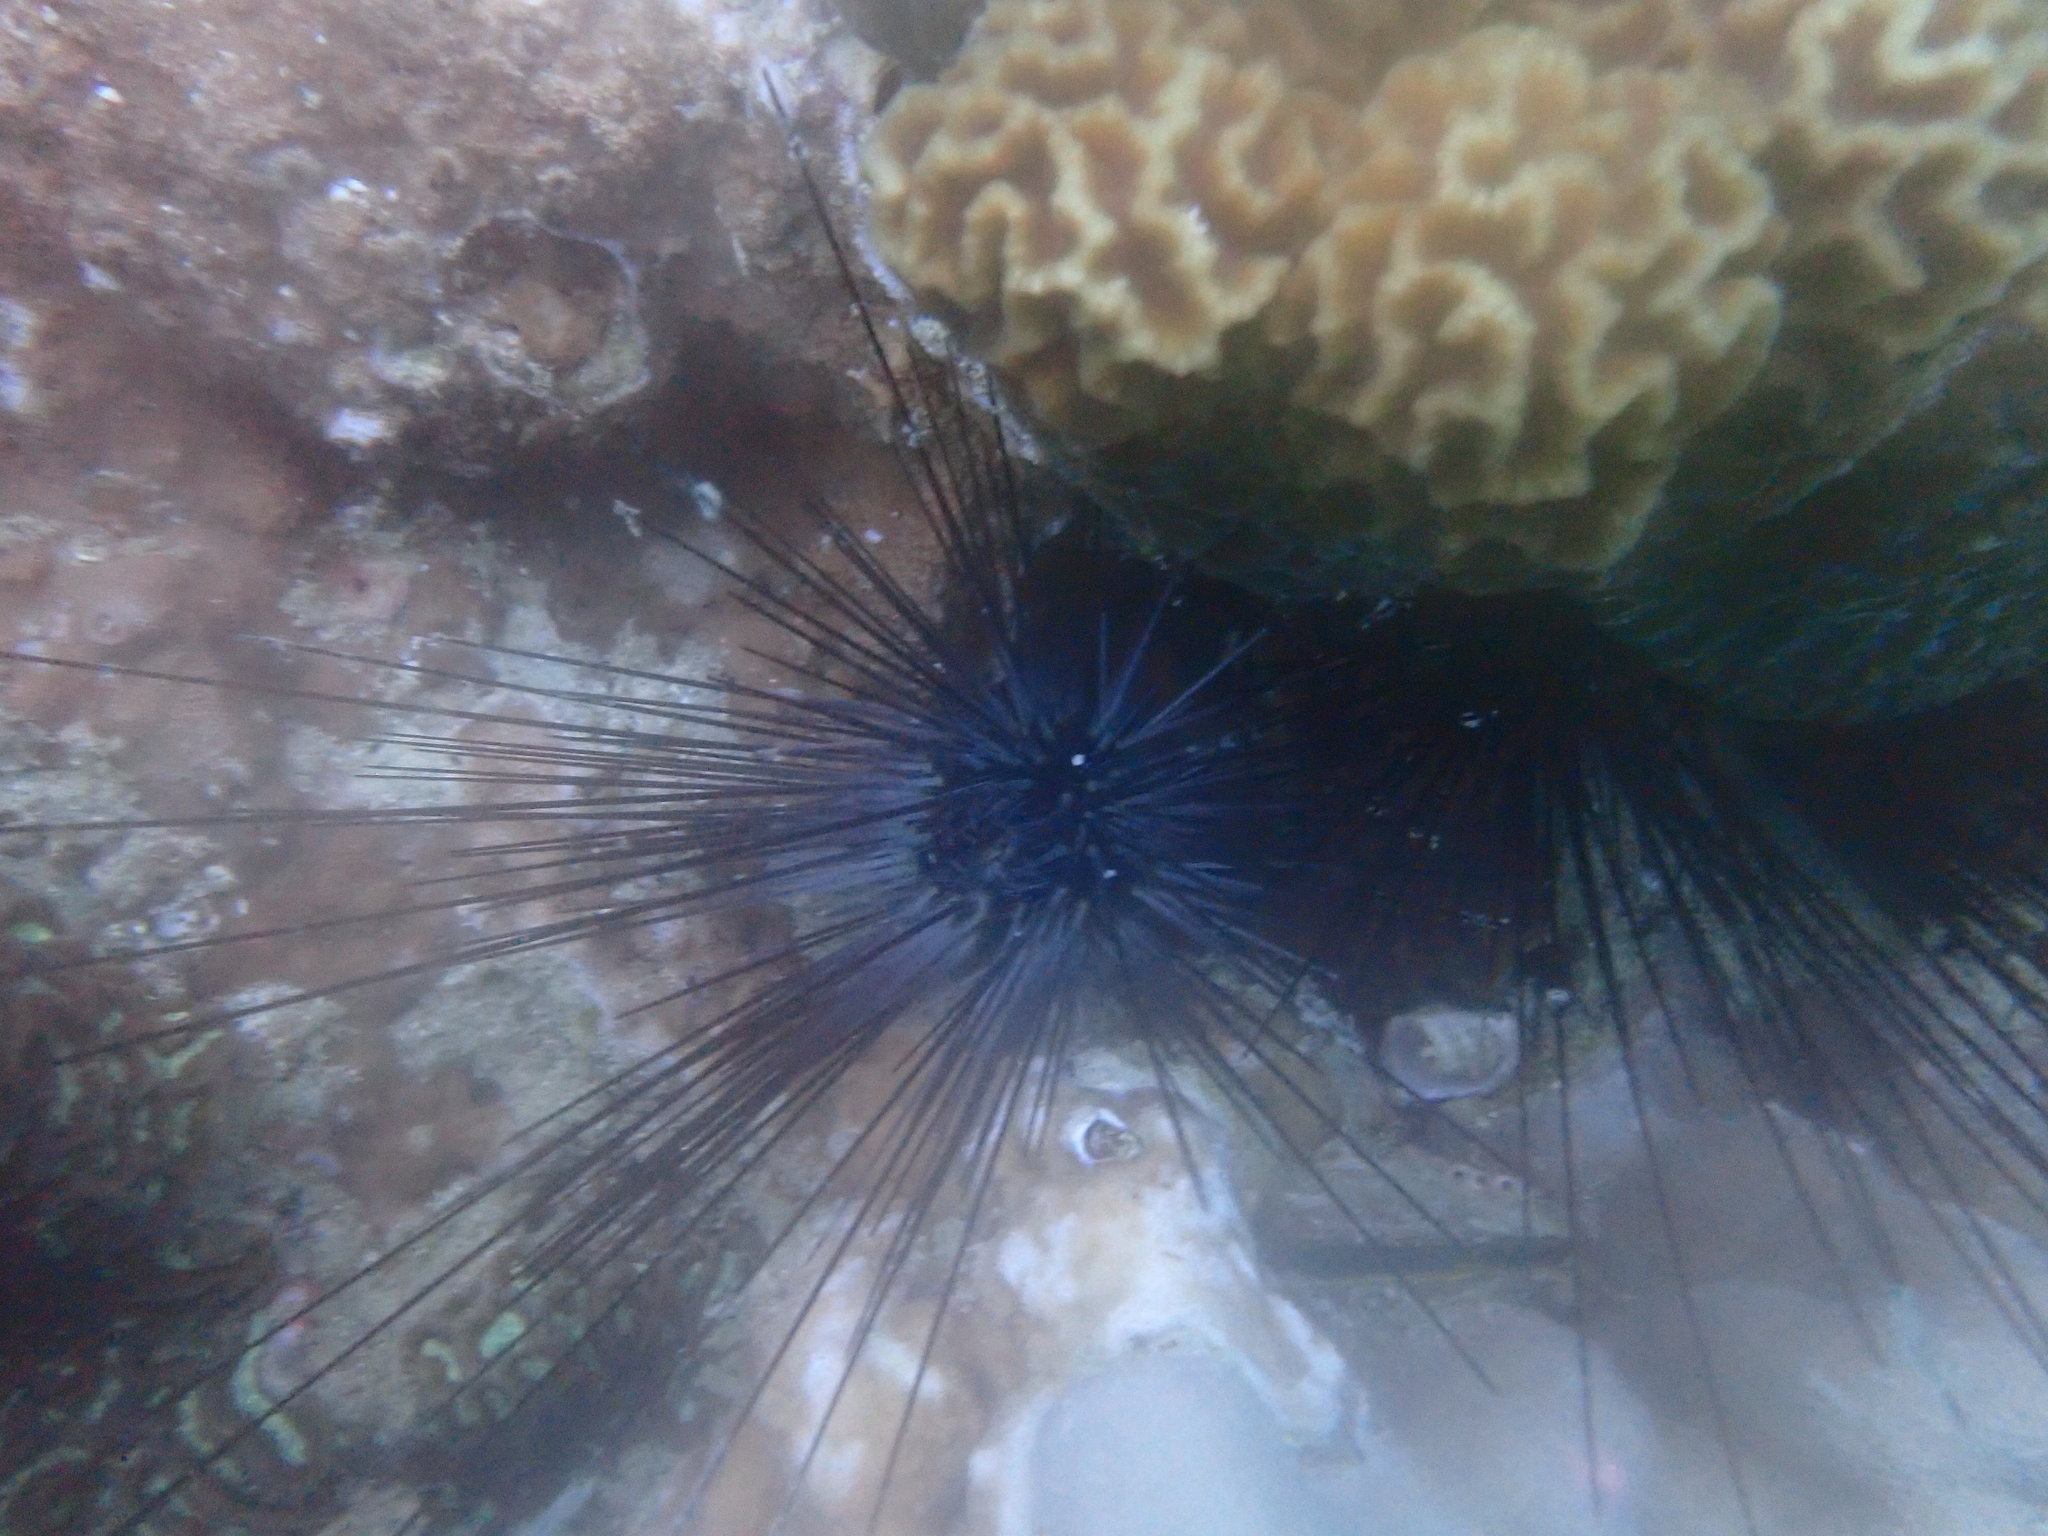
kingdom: Animalia
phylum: Echinodermata
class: Echinoidea
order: Diadematoida
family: Diadematidae
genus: Diadema
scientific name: Diadema setosum
